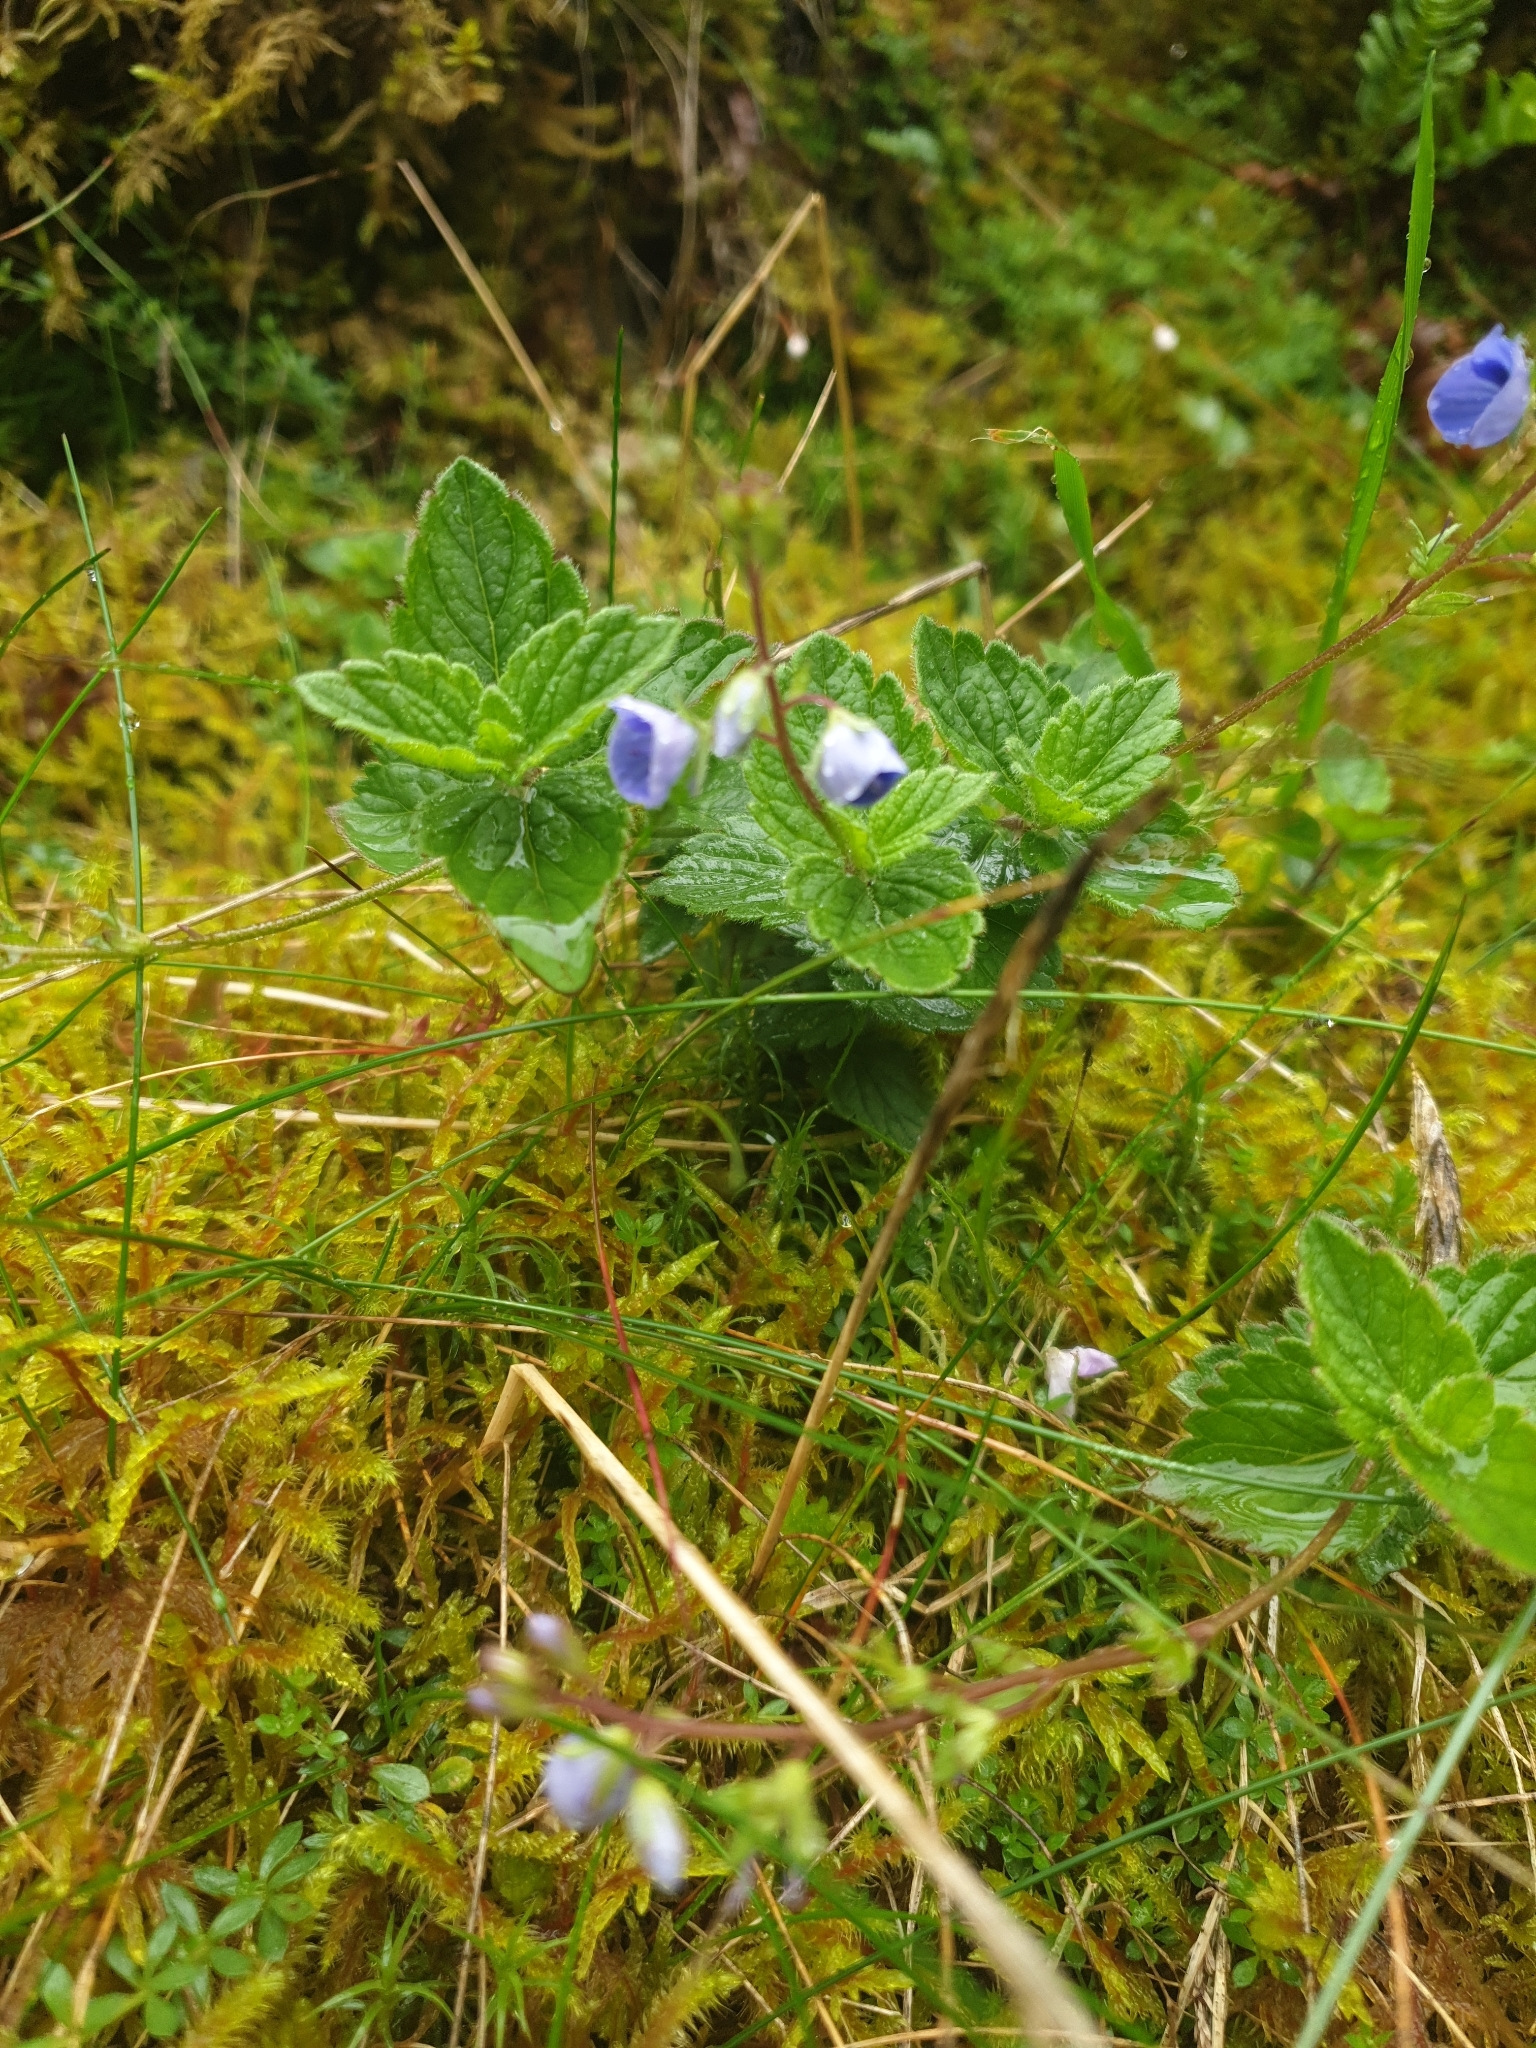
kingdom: Plantae
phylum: Tracheophyta
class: Magnoliopsida
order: Lamiales
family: Plantaginaceae
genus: Veronica
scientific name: Veronica chamaedrys
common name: Germander speedwell
